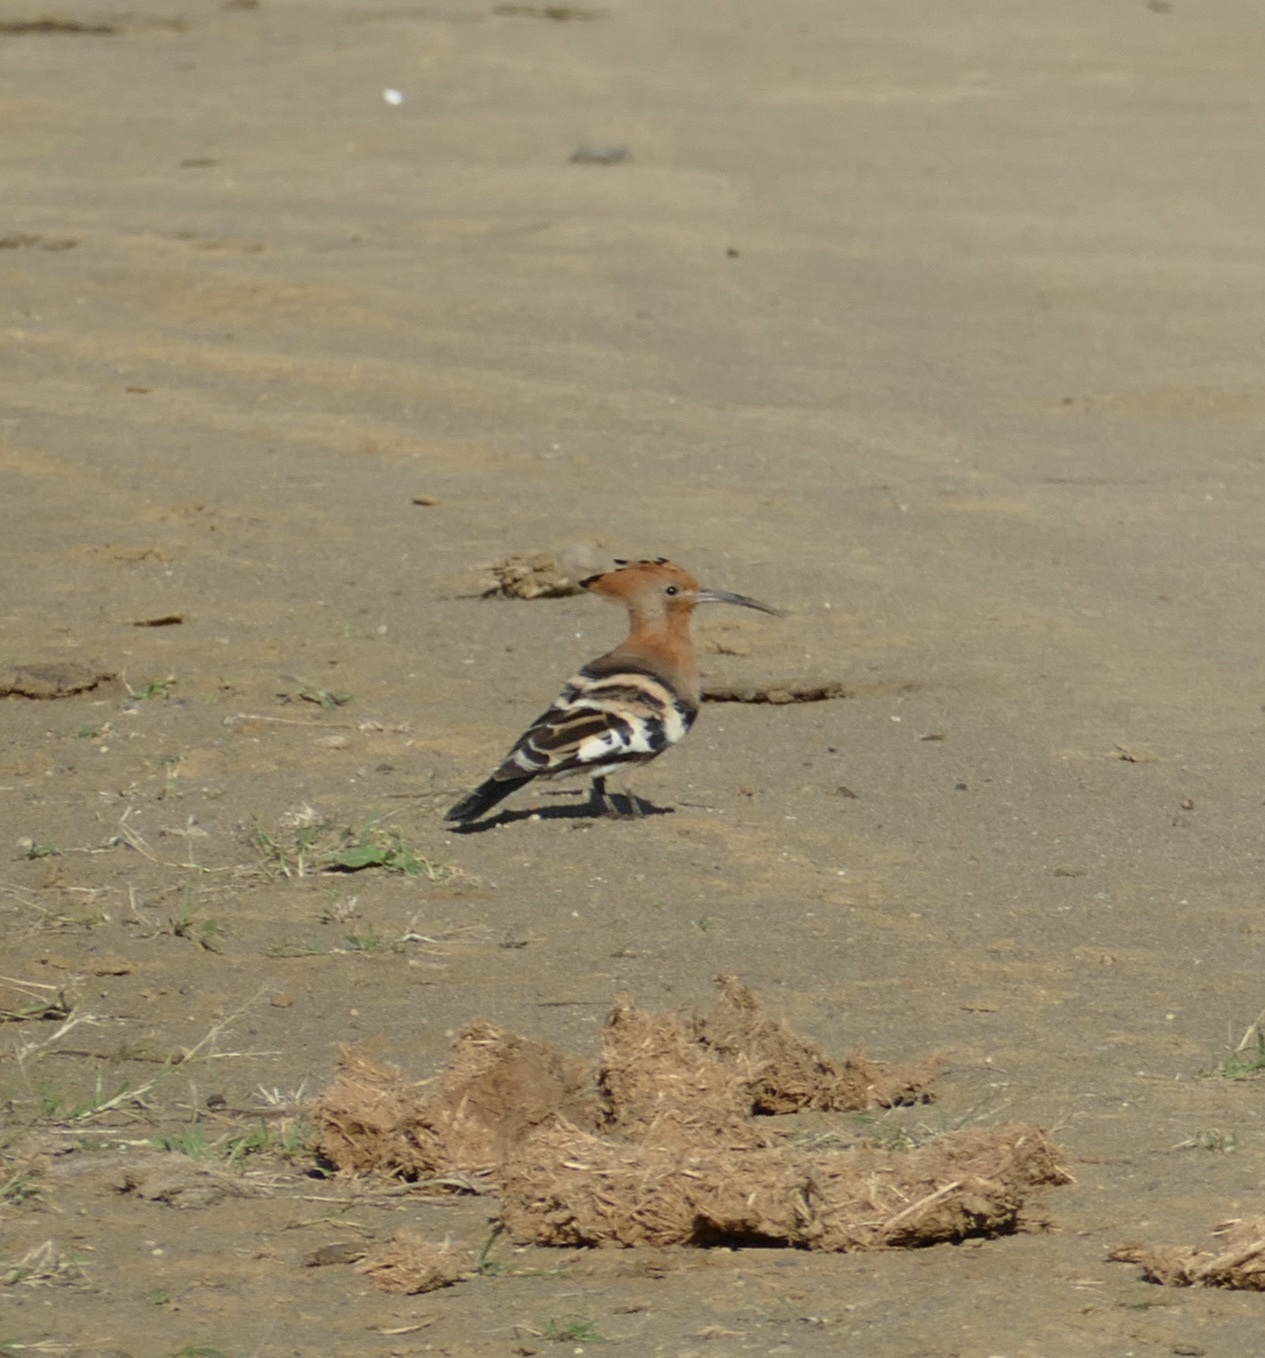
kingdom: Animalia
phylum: Chordata
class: Aves
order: Bucerotiformes
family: Upupidae
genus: Upupa
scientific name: Upupa africana
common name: African hoopoe
